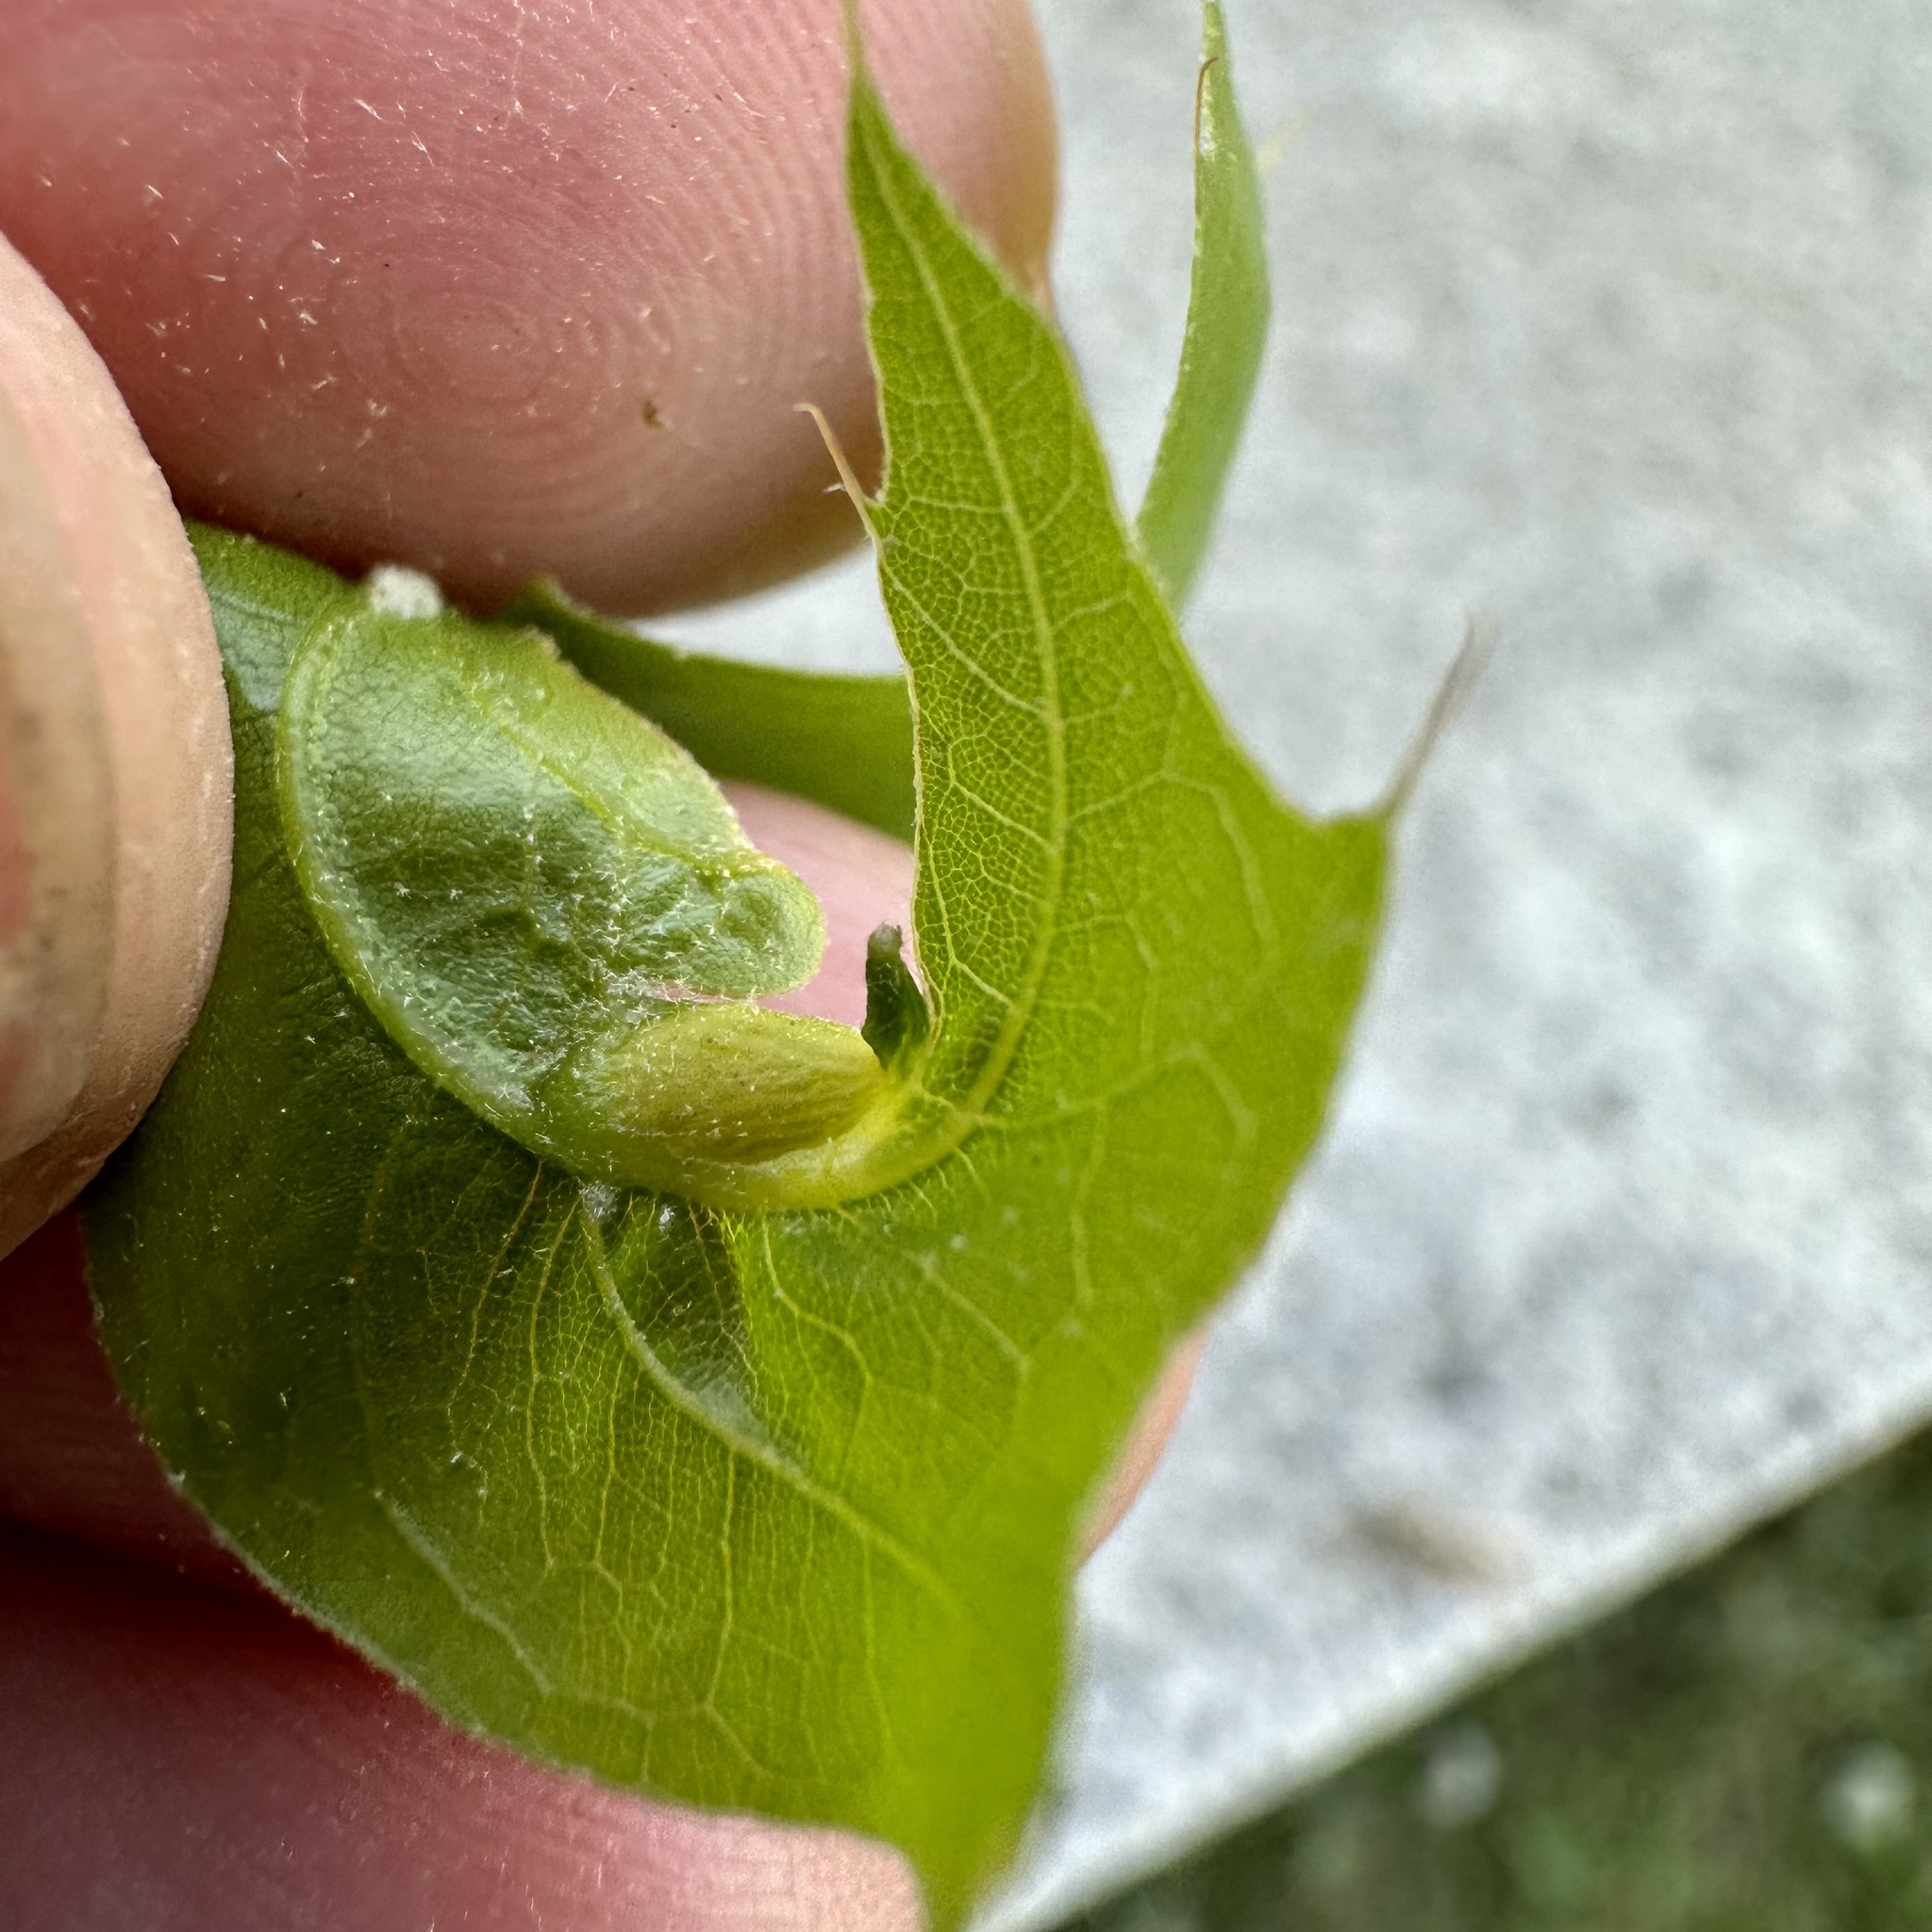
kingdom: Animalia
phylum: Arthropoda
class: Insecta
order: Hymenoptera
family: Cynipidae
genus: Dryocosmus
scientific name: Dryocosmus
